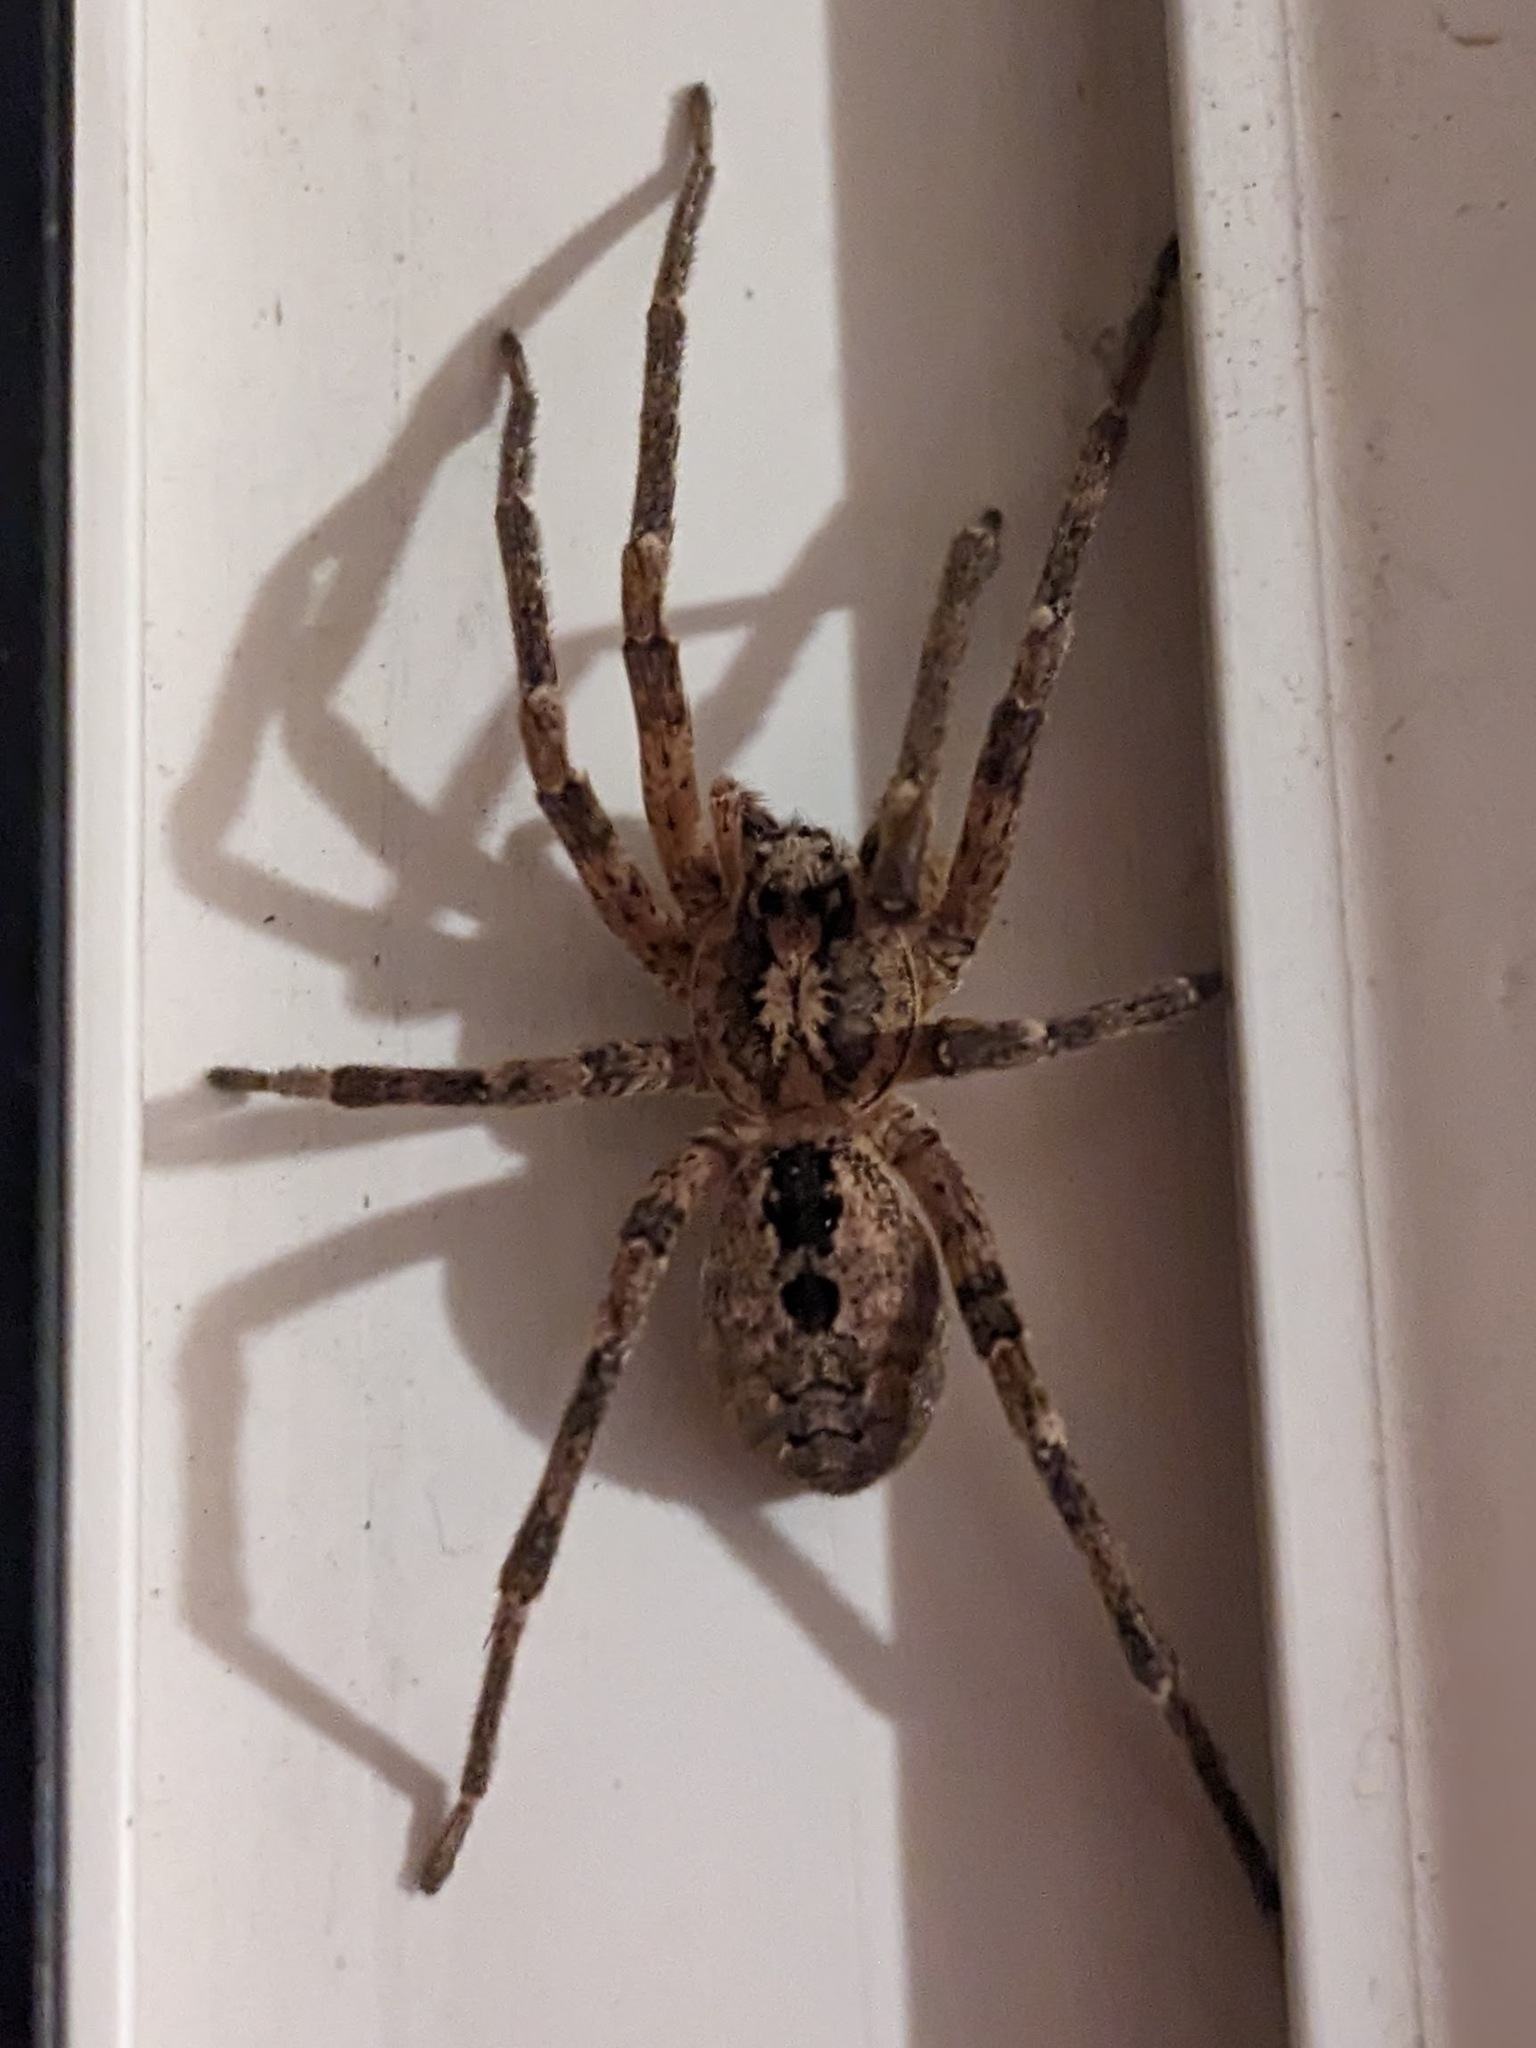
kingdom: Animalia
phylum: Arthropoda
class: Arachnida
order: Araneae
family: Zoropsidae
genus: Zoropsis
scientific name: Zoropsis spinimana
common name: Zoropsid spider
